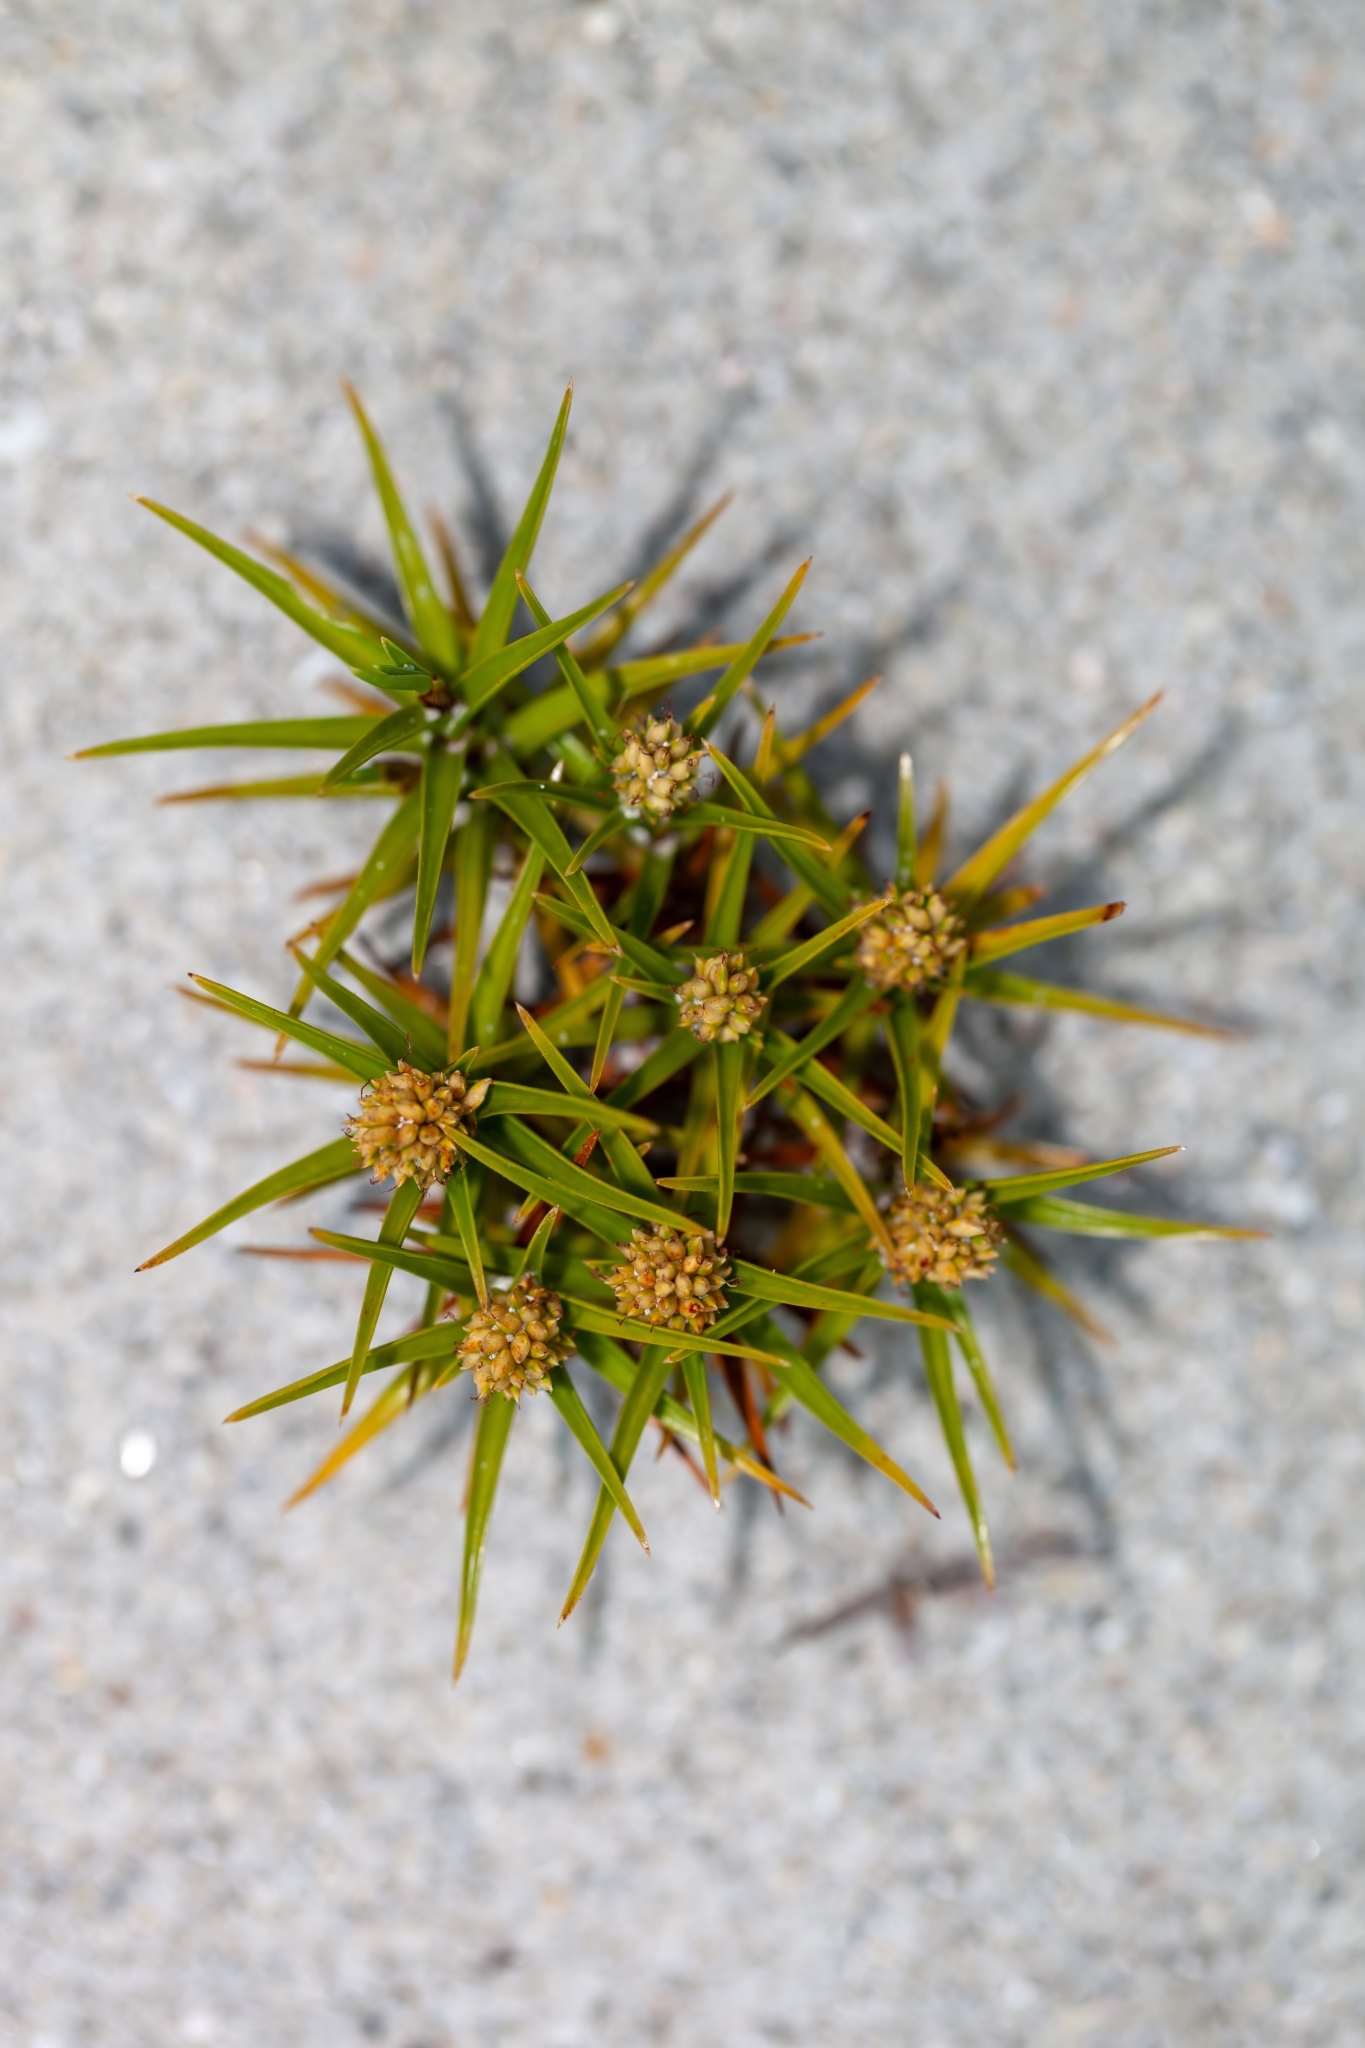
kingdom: Plantae
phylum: Tracheophyta
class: Liliopsida
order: Poales
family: Cyperaceae
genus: Cyperus
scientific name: Cyperus pedunculatus
